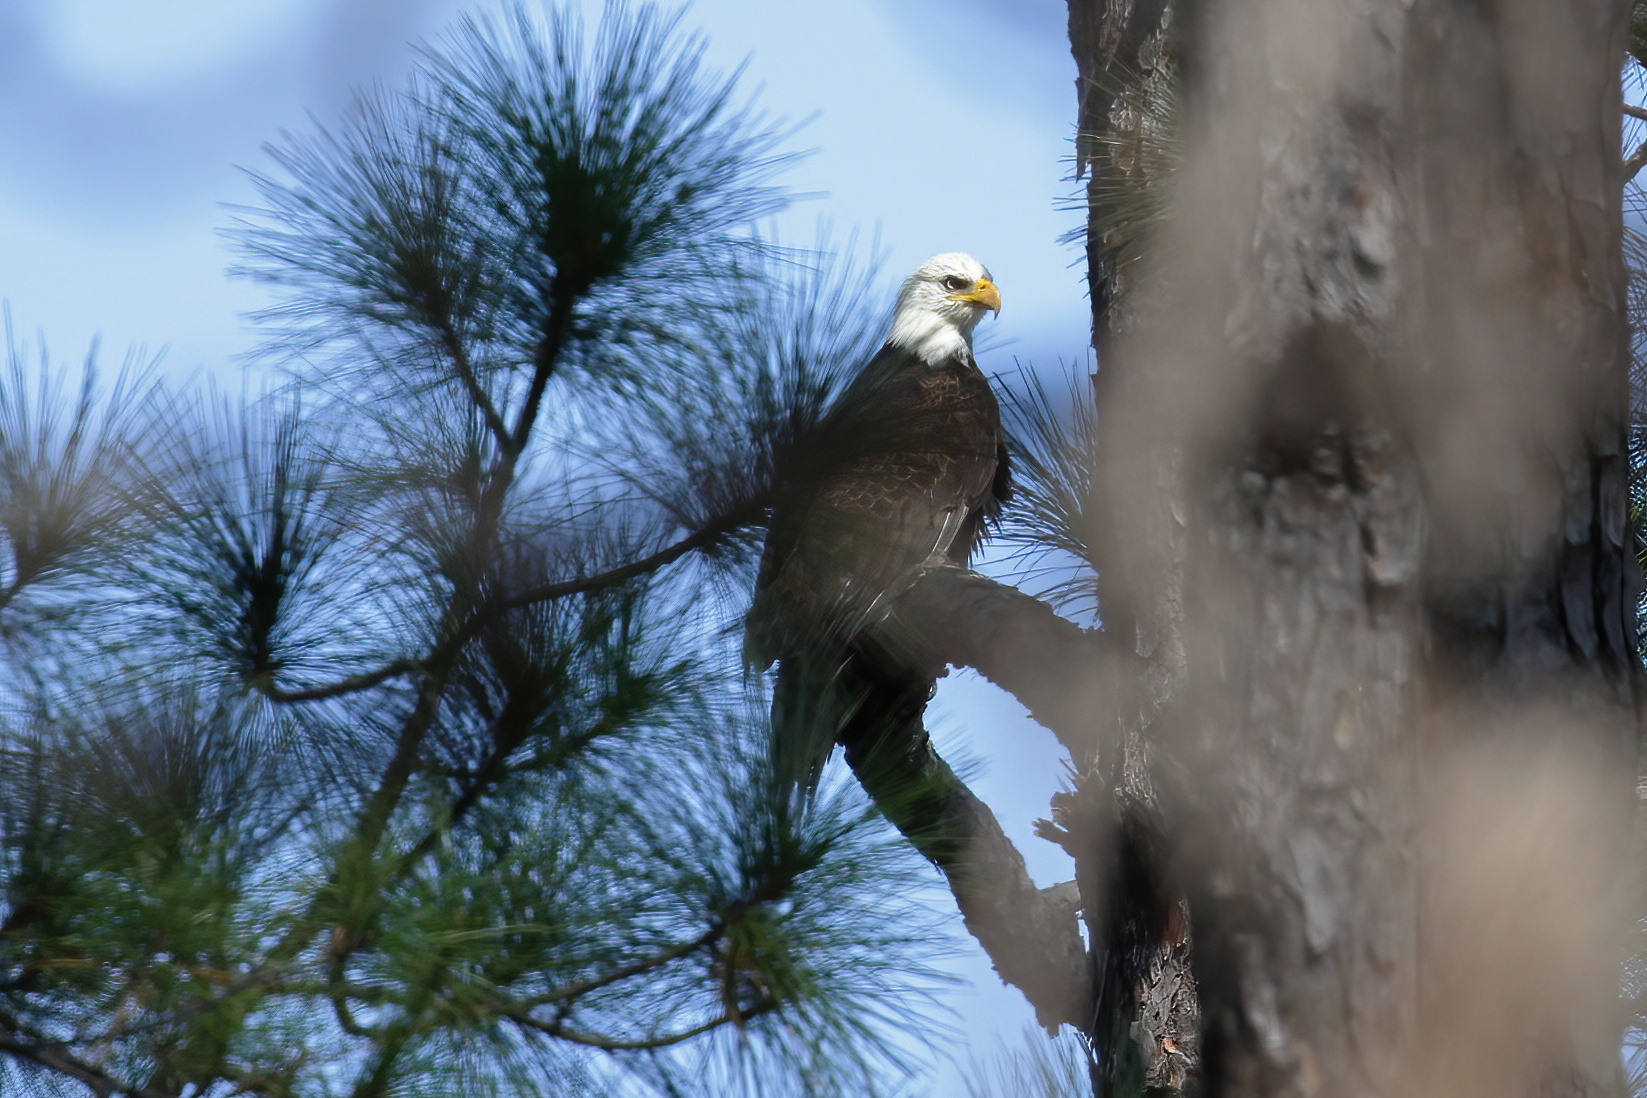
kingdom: Animalia
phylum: Chordata
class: Aves
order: Accipitriformes
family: Accipitridae
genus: Haliaeetus
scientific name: Haliaeetus leucocephalus
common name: Bald eagle
